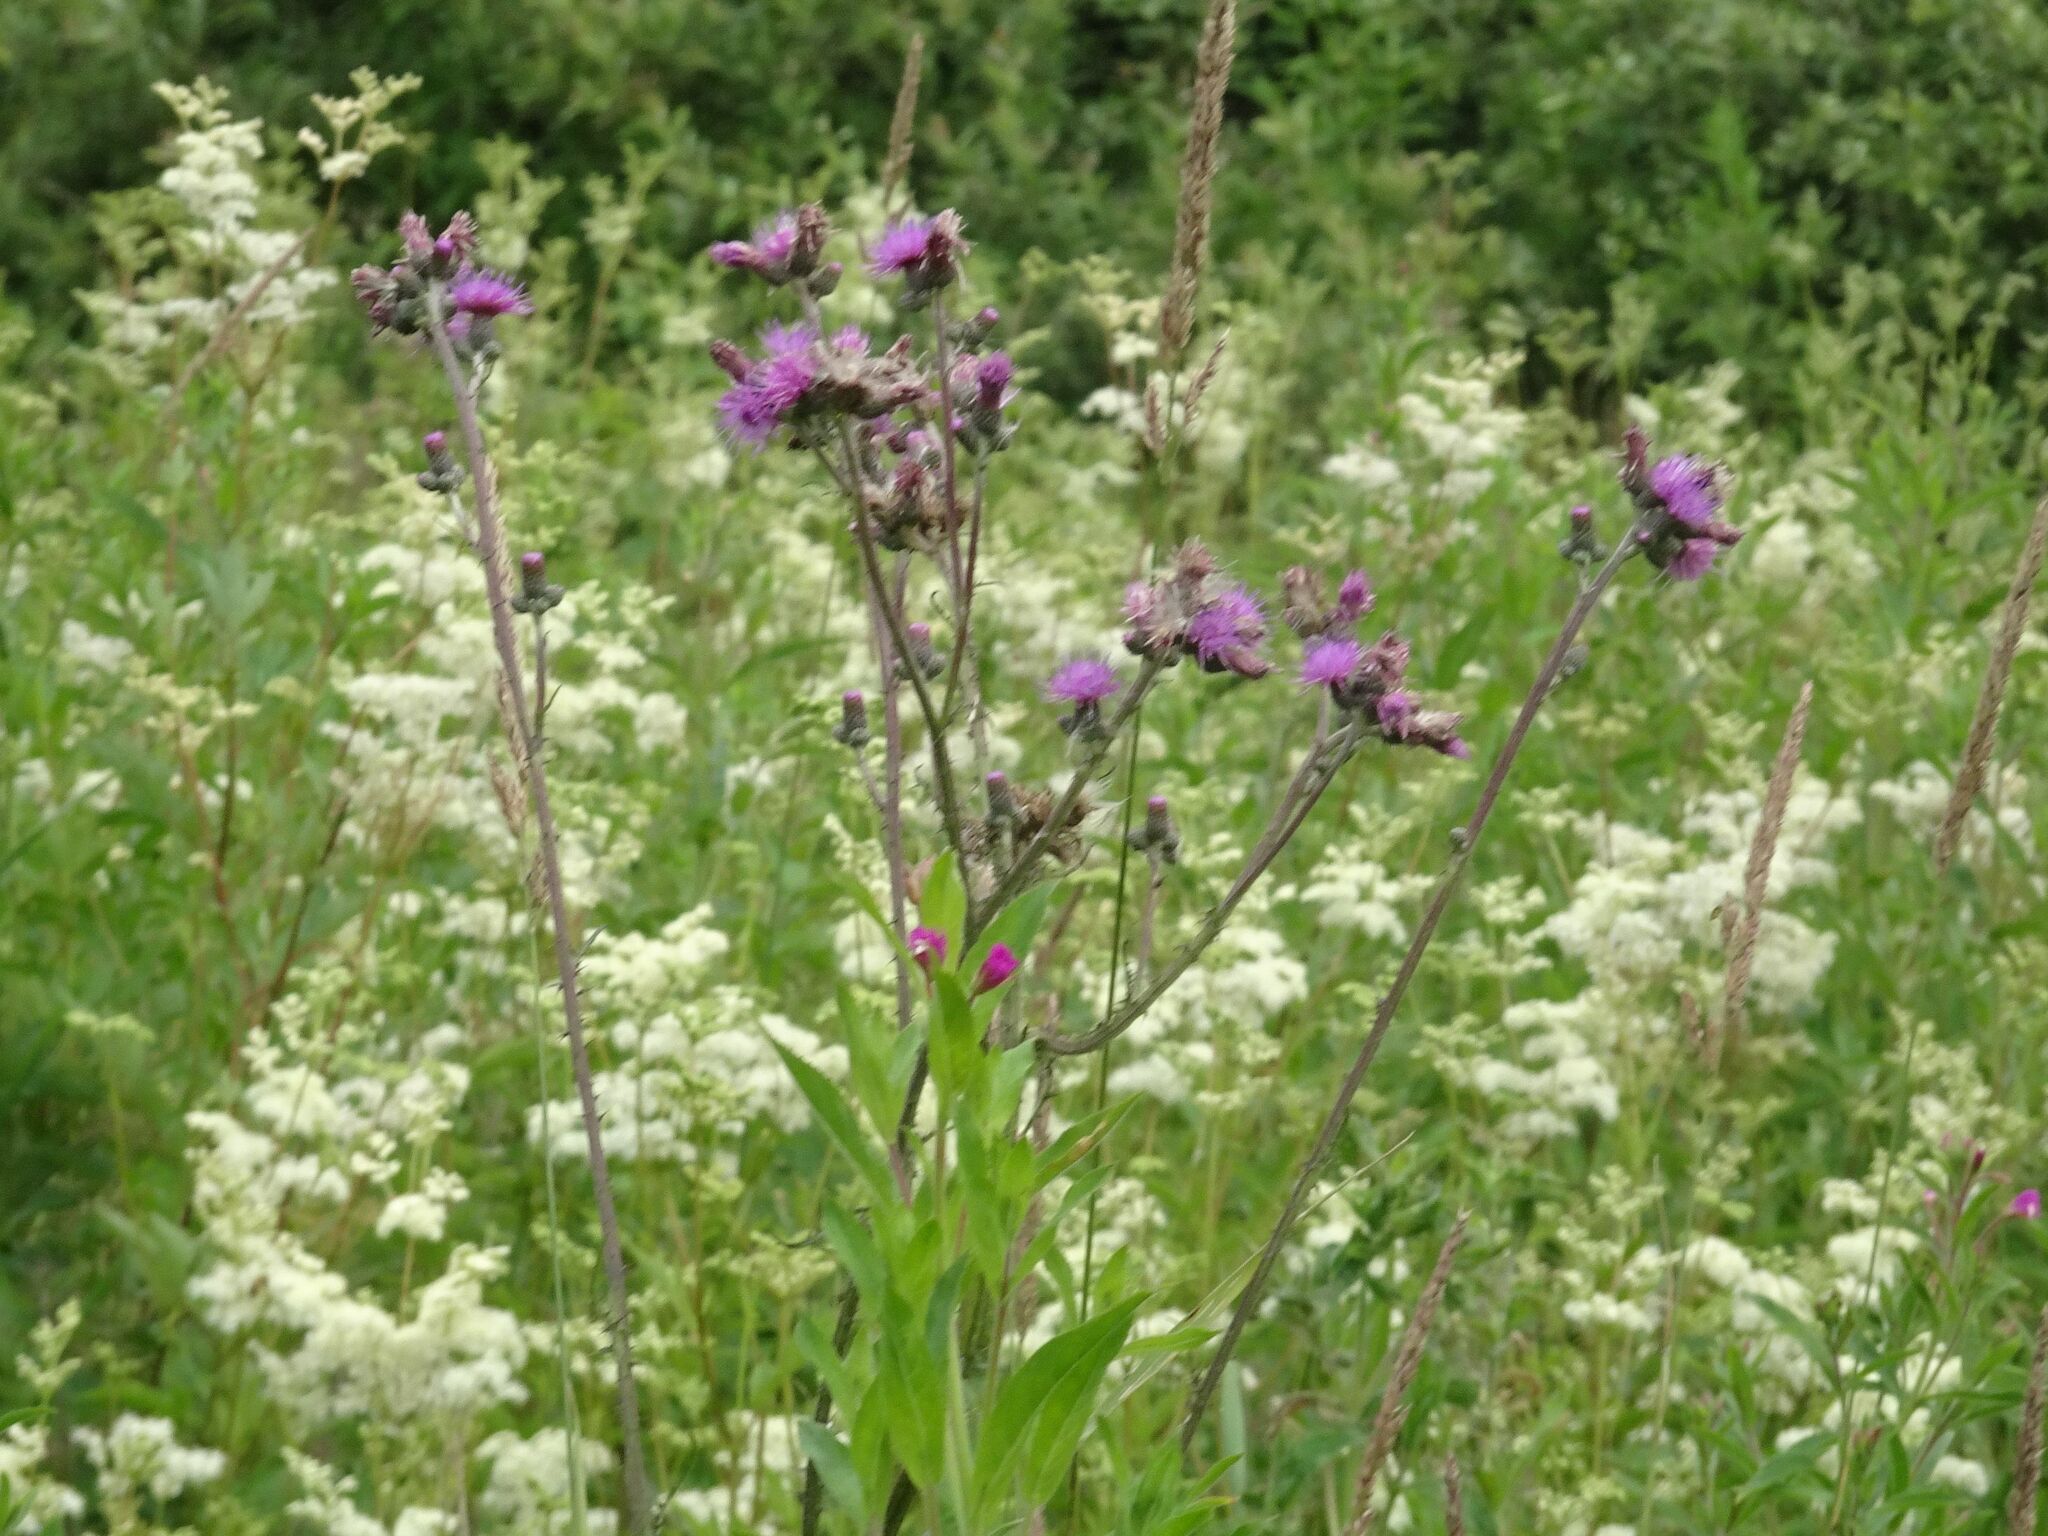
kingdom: Plantae
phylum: Tracheophyta
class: Magnoliopsida
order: Asterales
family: Asteraceae
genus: Cirsium
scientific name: Cirsium palustre
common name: Marsh thistle
